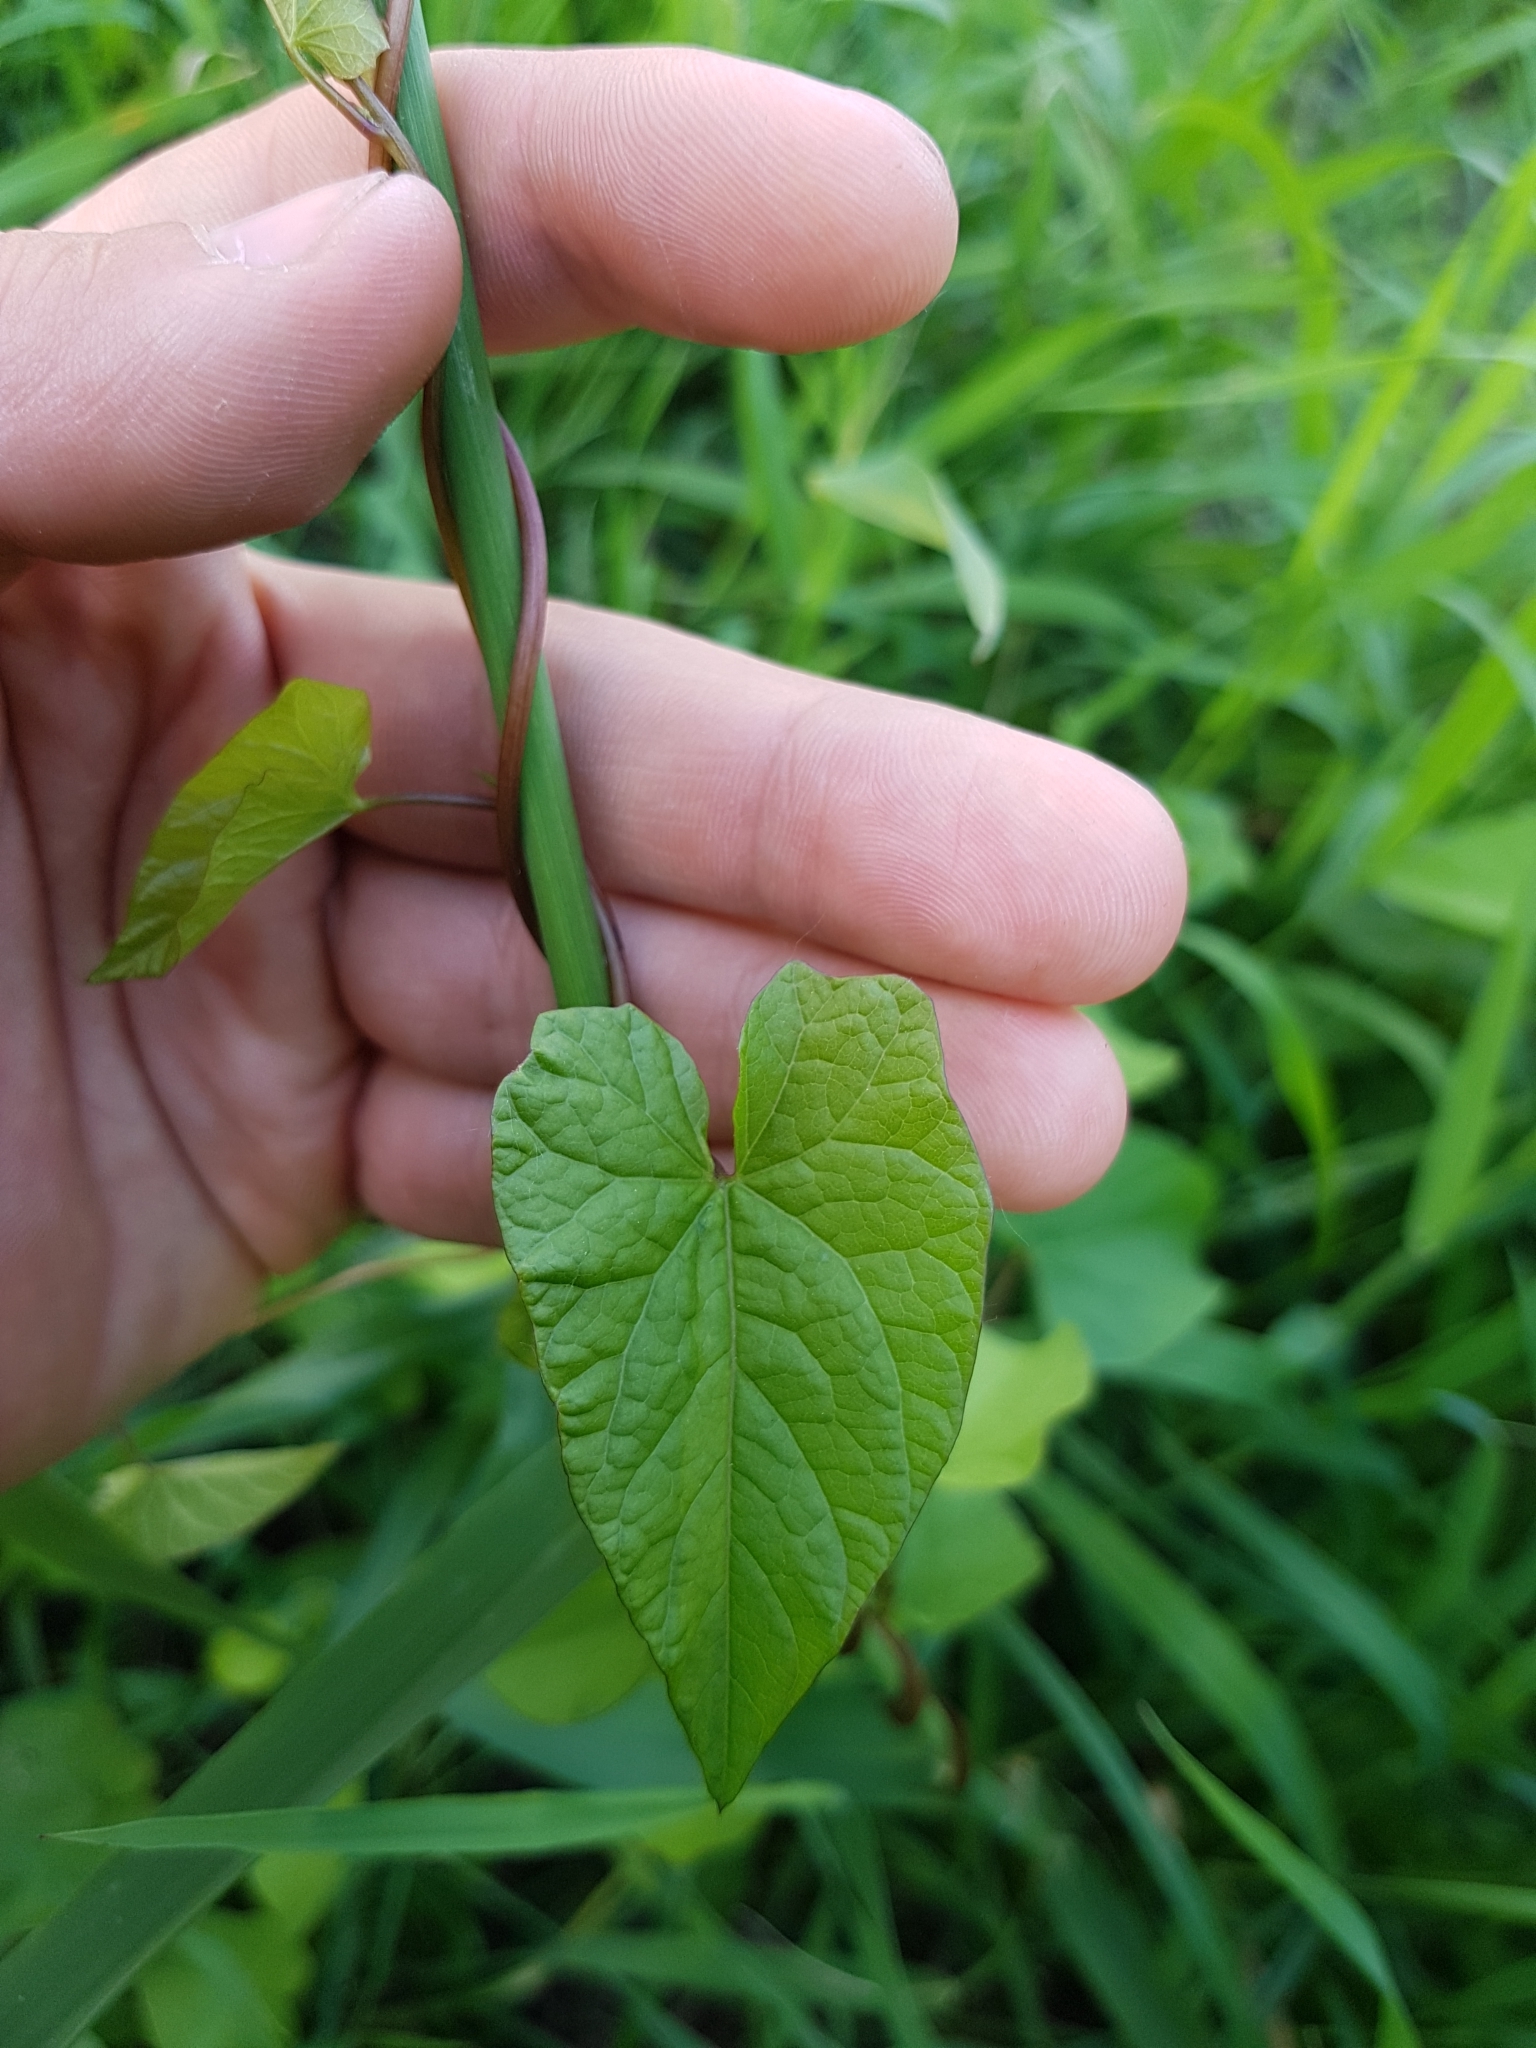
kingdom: Plantae
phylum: Tracheophyta
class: Magnoliopsida
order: Solanales
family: Convolvulaceae
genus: Calystegia
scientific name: Calystegia sepium
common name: Hedge bindweed
